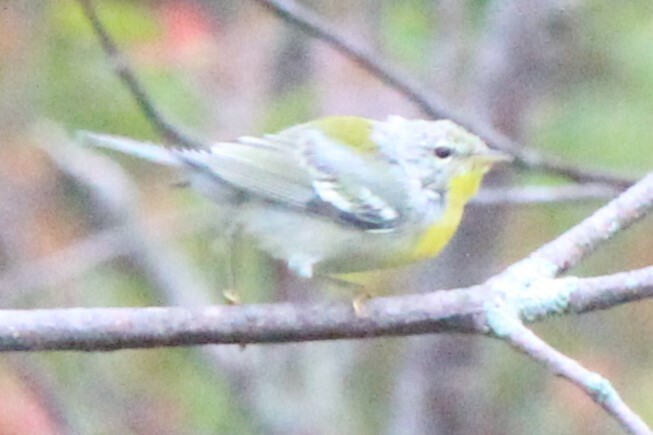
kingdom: Animalia
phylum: Chordata
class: Aves
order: Passeriformes
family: Parulidae
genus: Setophaga
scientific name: Setophaga americana
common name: Northern parula
